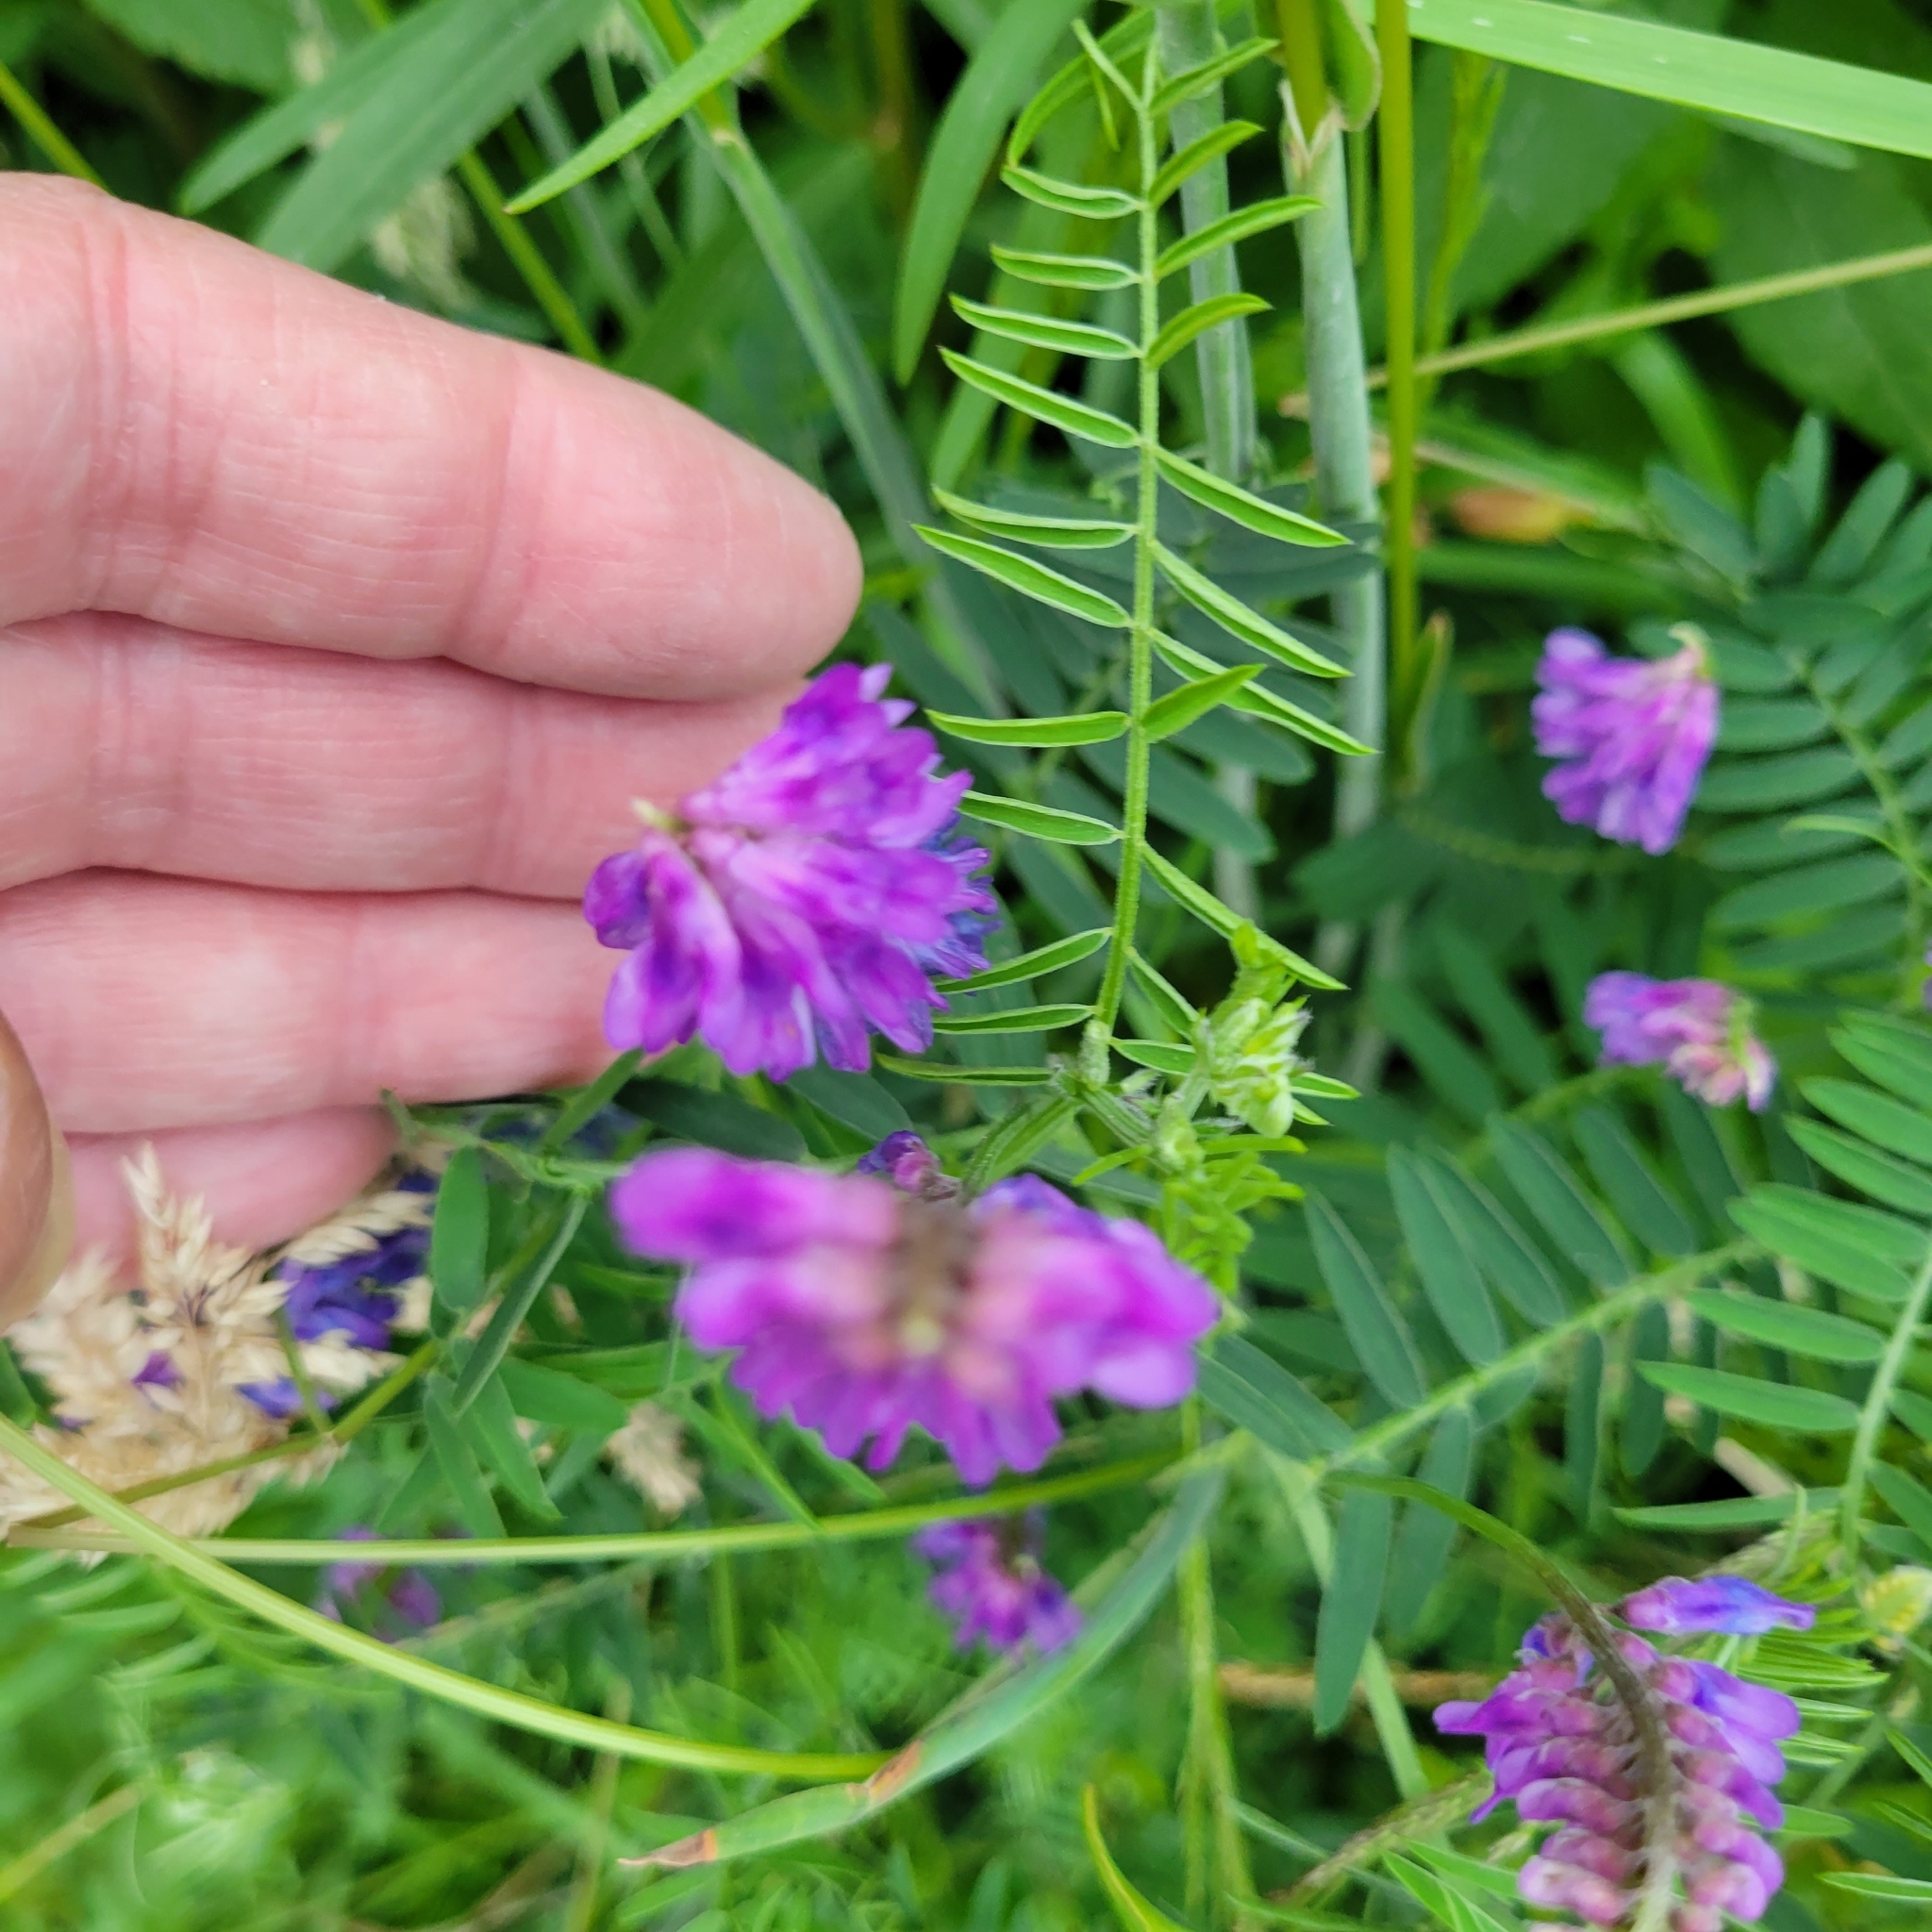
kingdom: Plantae
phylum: Tracheophyta
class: Magnoliopsida
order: Fabales
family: Fabaceae
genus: Vicia
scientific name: Vicia cracca
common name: Bird vetch
